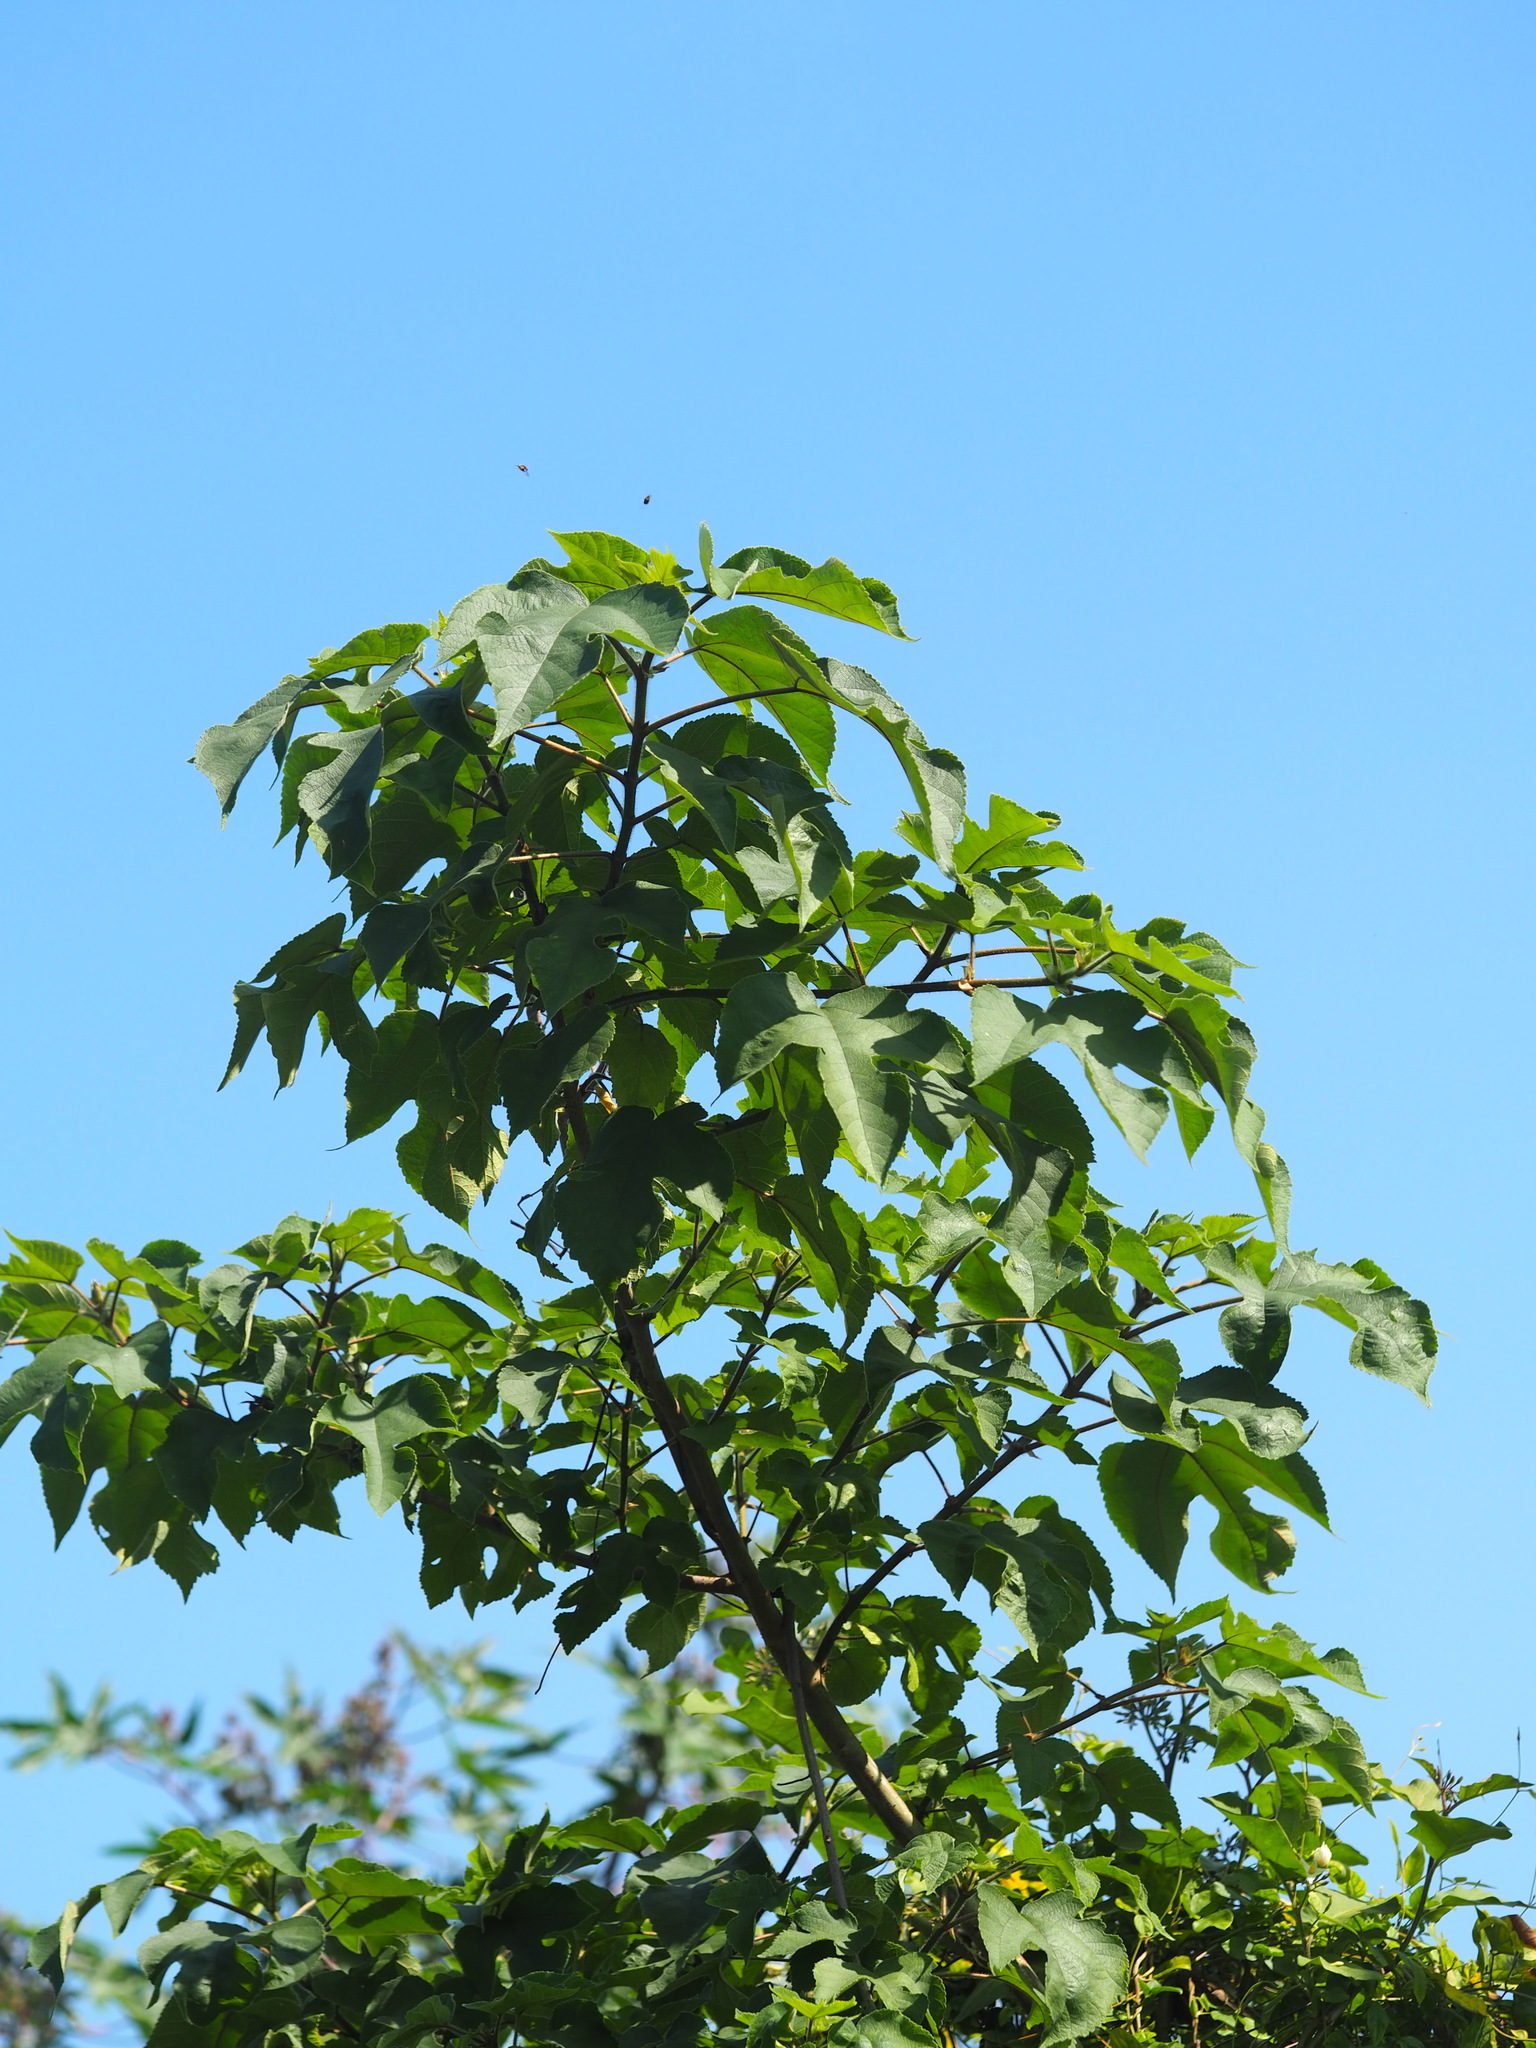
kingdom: Plantae
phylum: Tracheophyta
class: Magnoliopsida
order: Rosales
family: Moraceae
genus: Broussonetia
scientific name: Broussonetia papyrifera
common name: Paper mulberry
